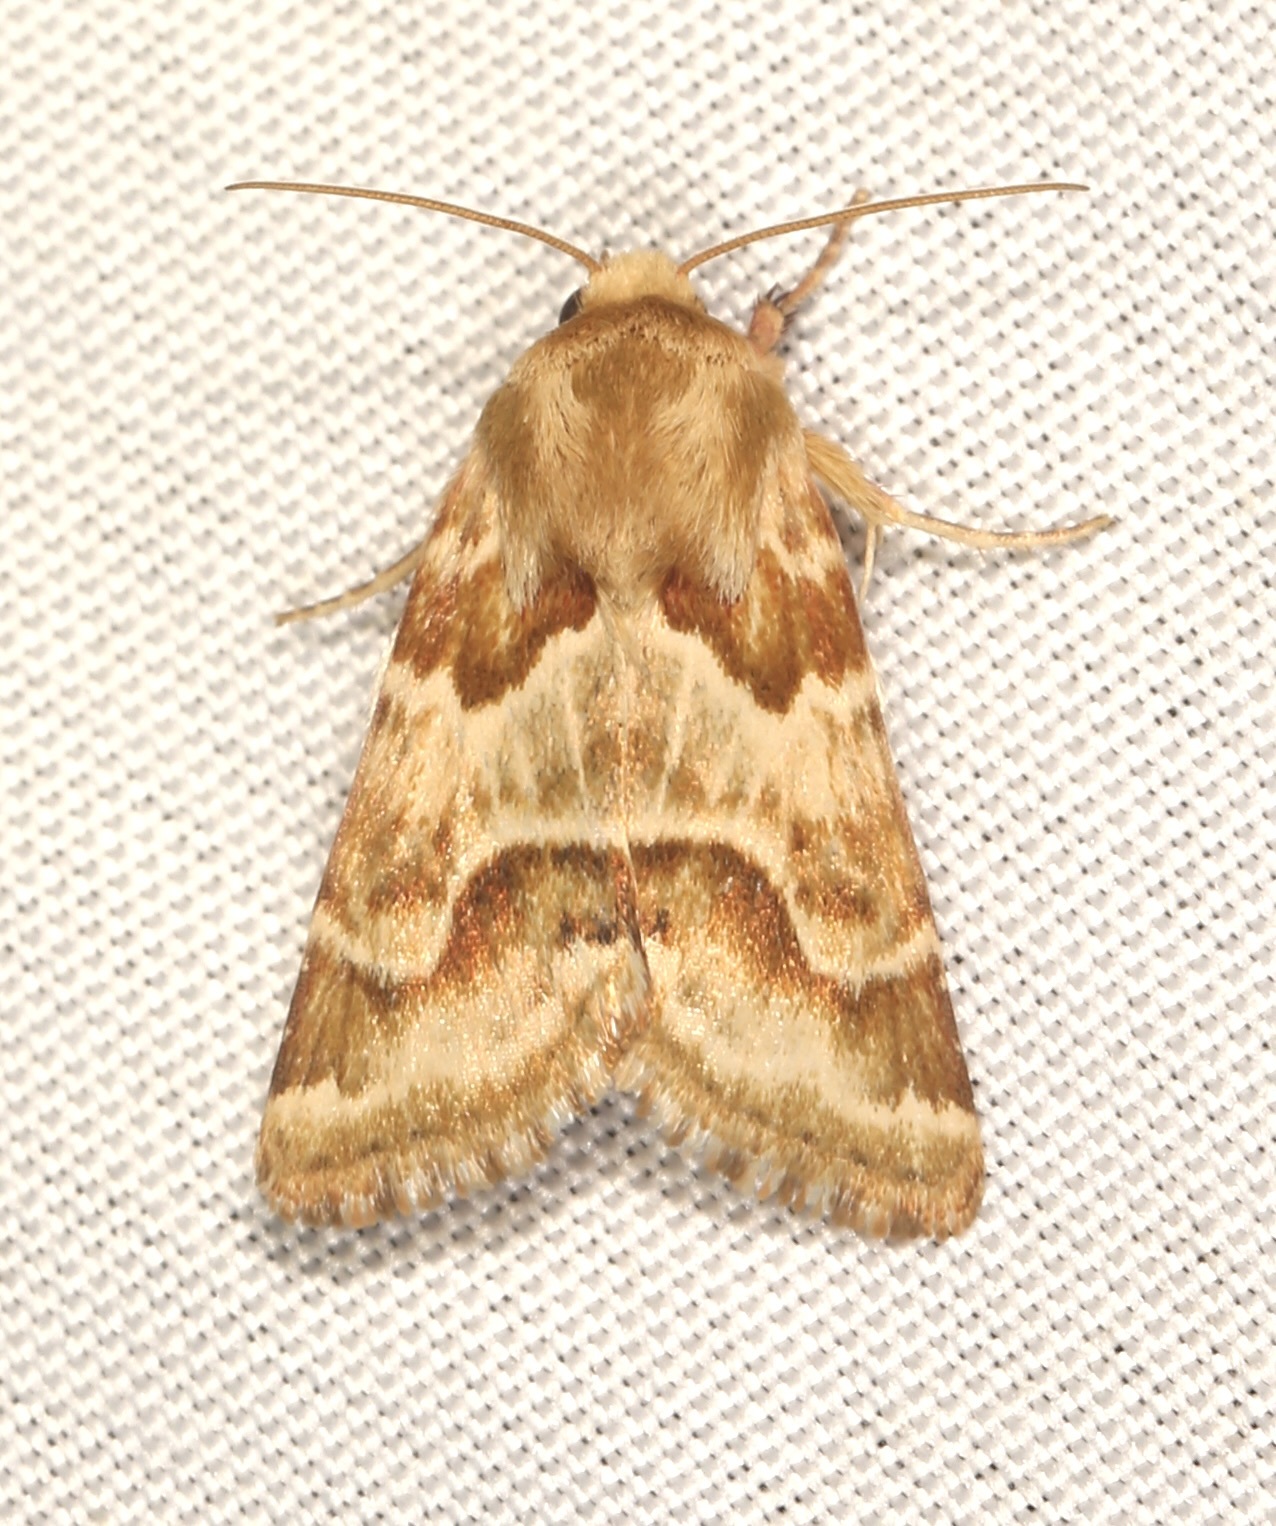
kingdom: Animalia
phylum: Arthropoda
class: Insecta
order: Lepidoptera
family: Noctuidae
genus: Schinia
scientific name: Schinia errans
